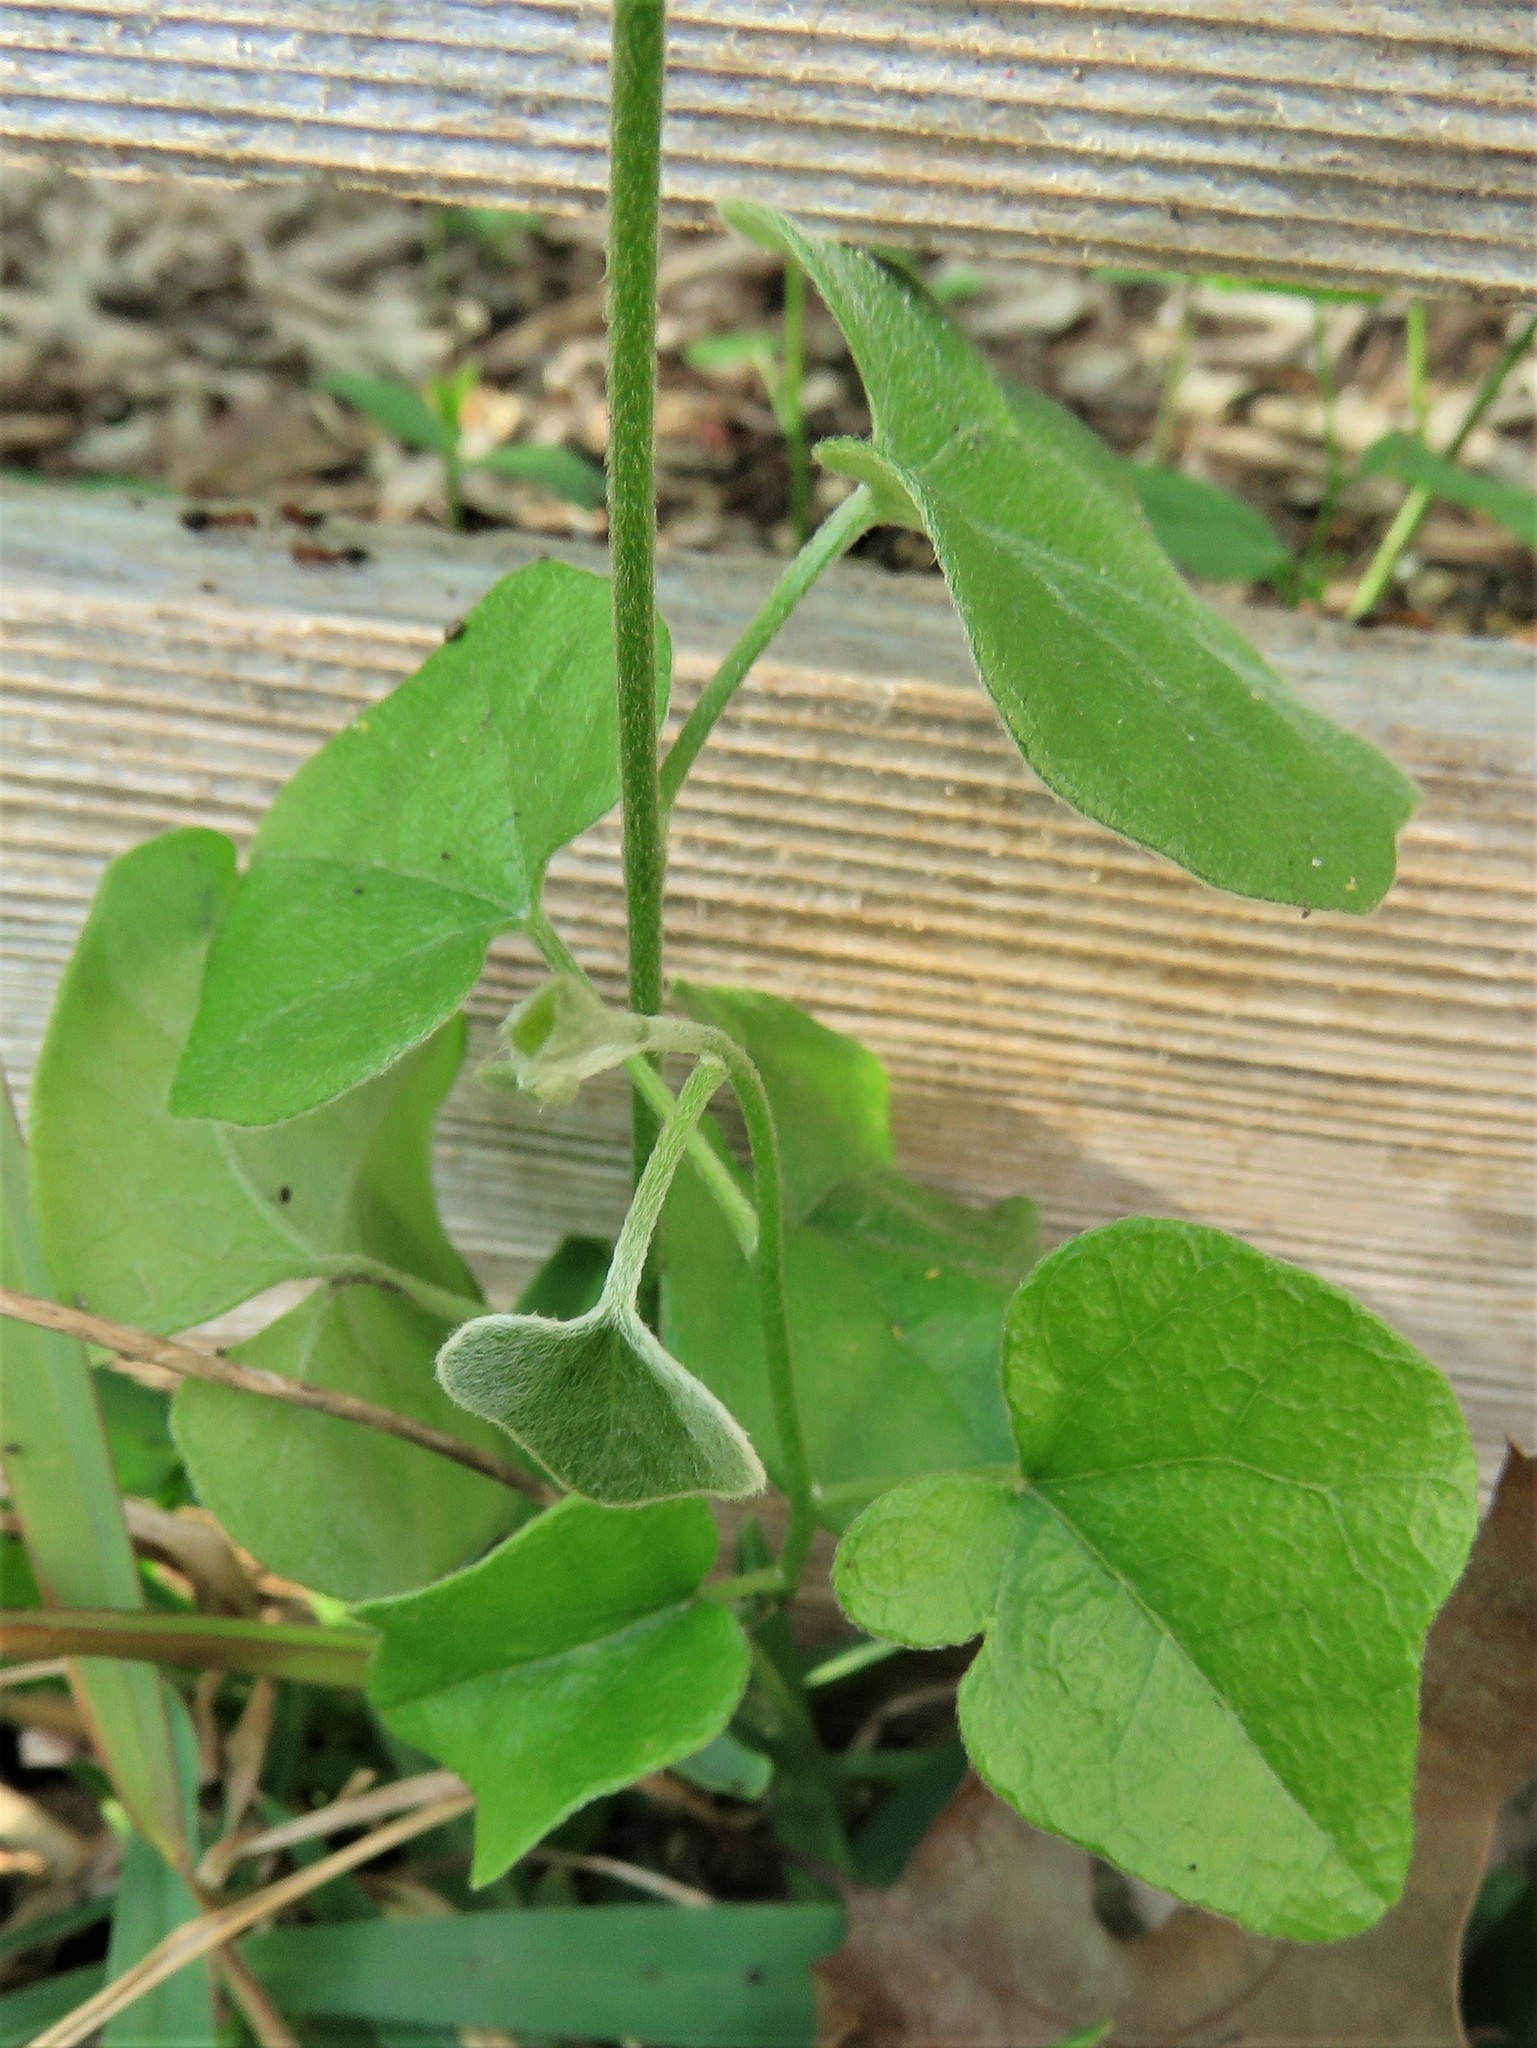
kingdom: Plantae
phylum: Tracheophyta
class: Magnoliopsida
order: Ranunculales
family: Menispermaceae
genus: Cocculus
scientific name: Cocculus carolinus
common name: Carolina moonseed
